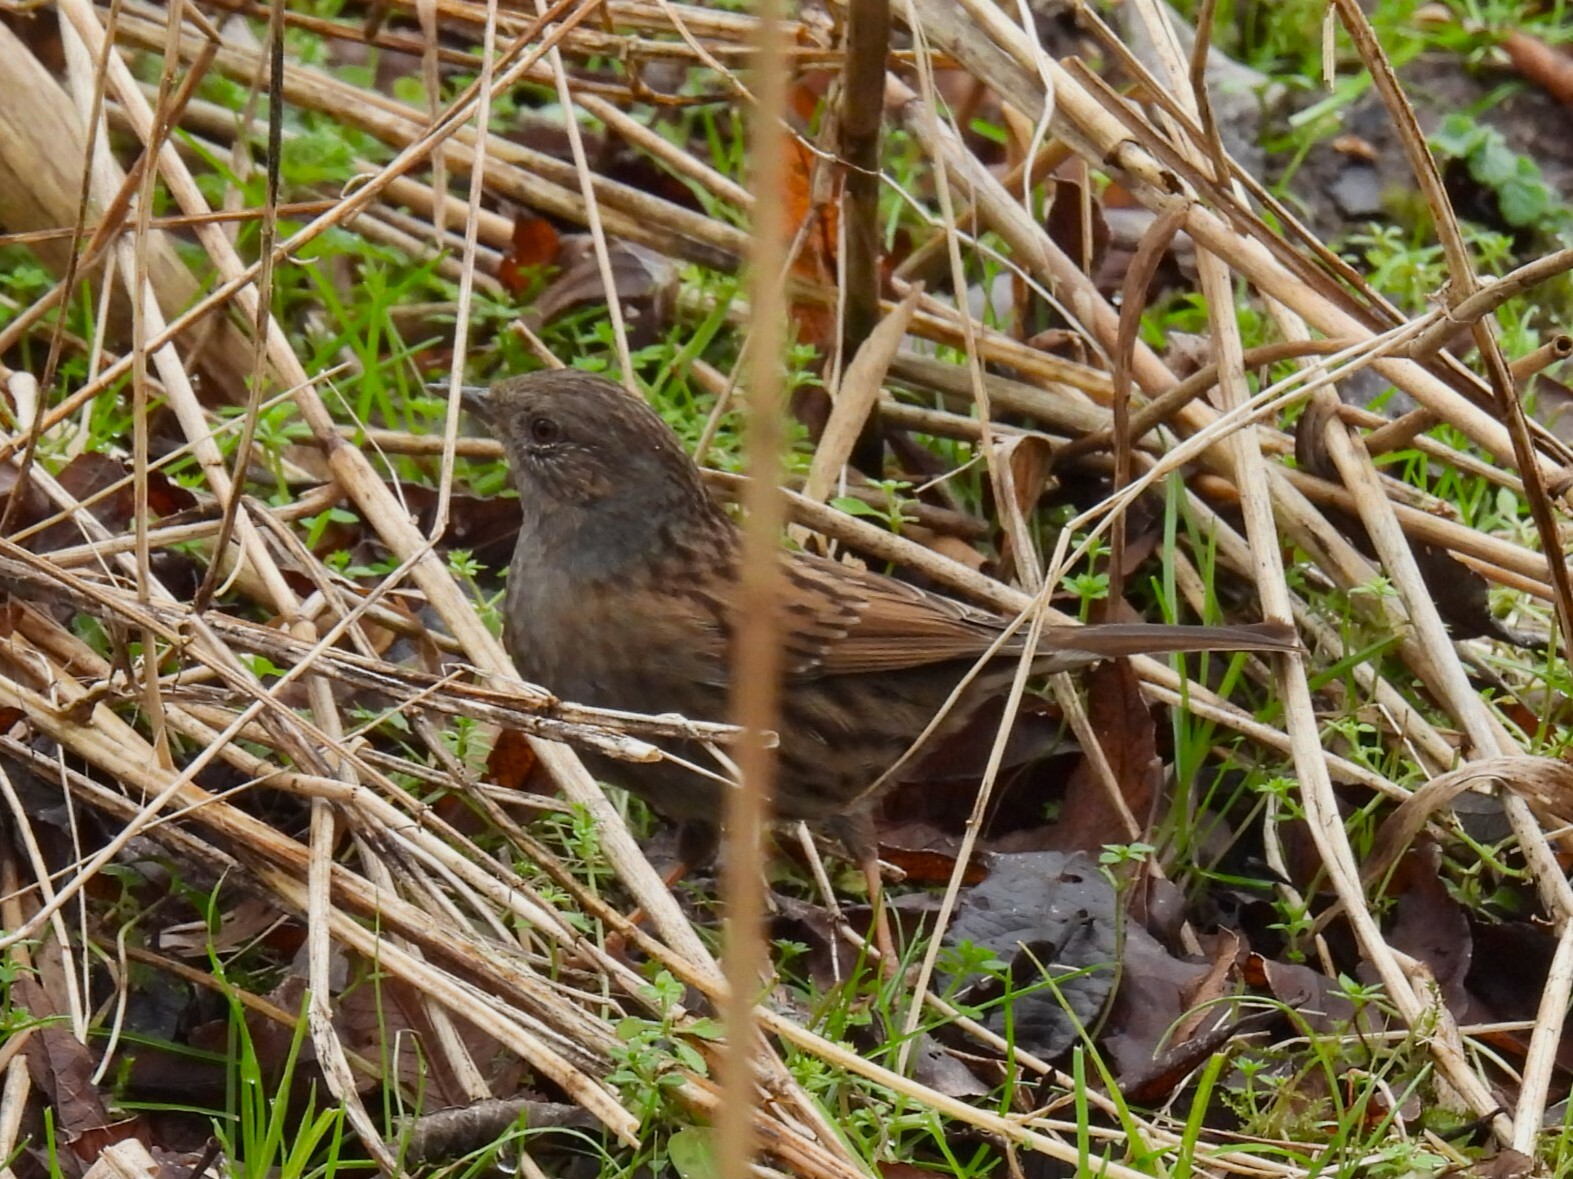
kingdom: Animalia
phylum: Chordata
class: Aves
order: Passeriformes
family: Prunellidae
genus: Prunella
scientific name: Prunella modularis
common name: Dunnock
